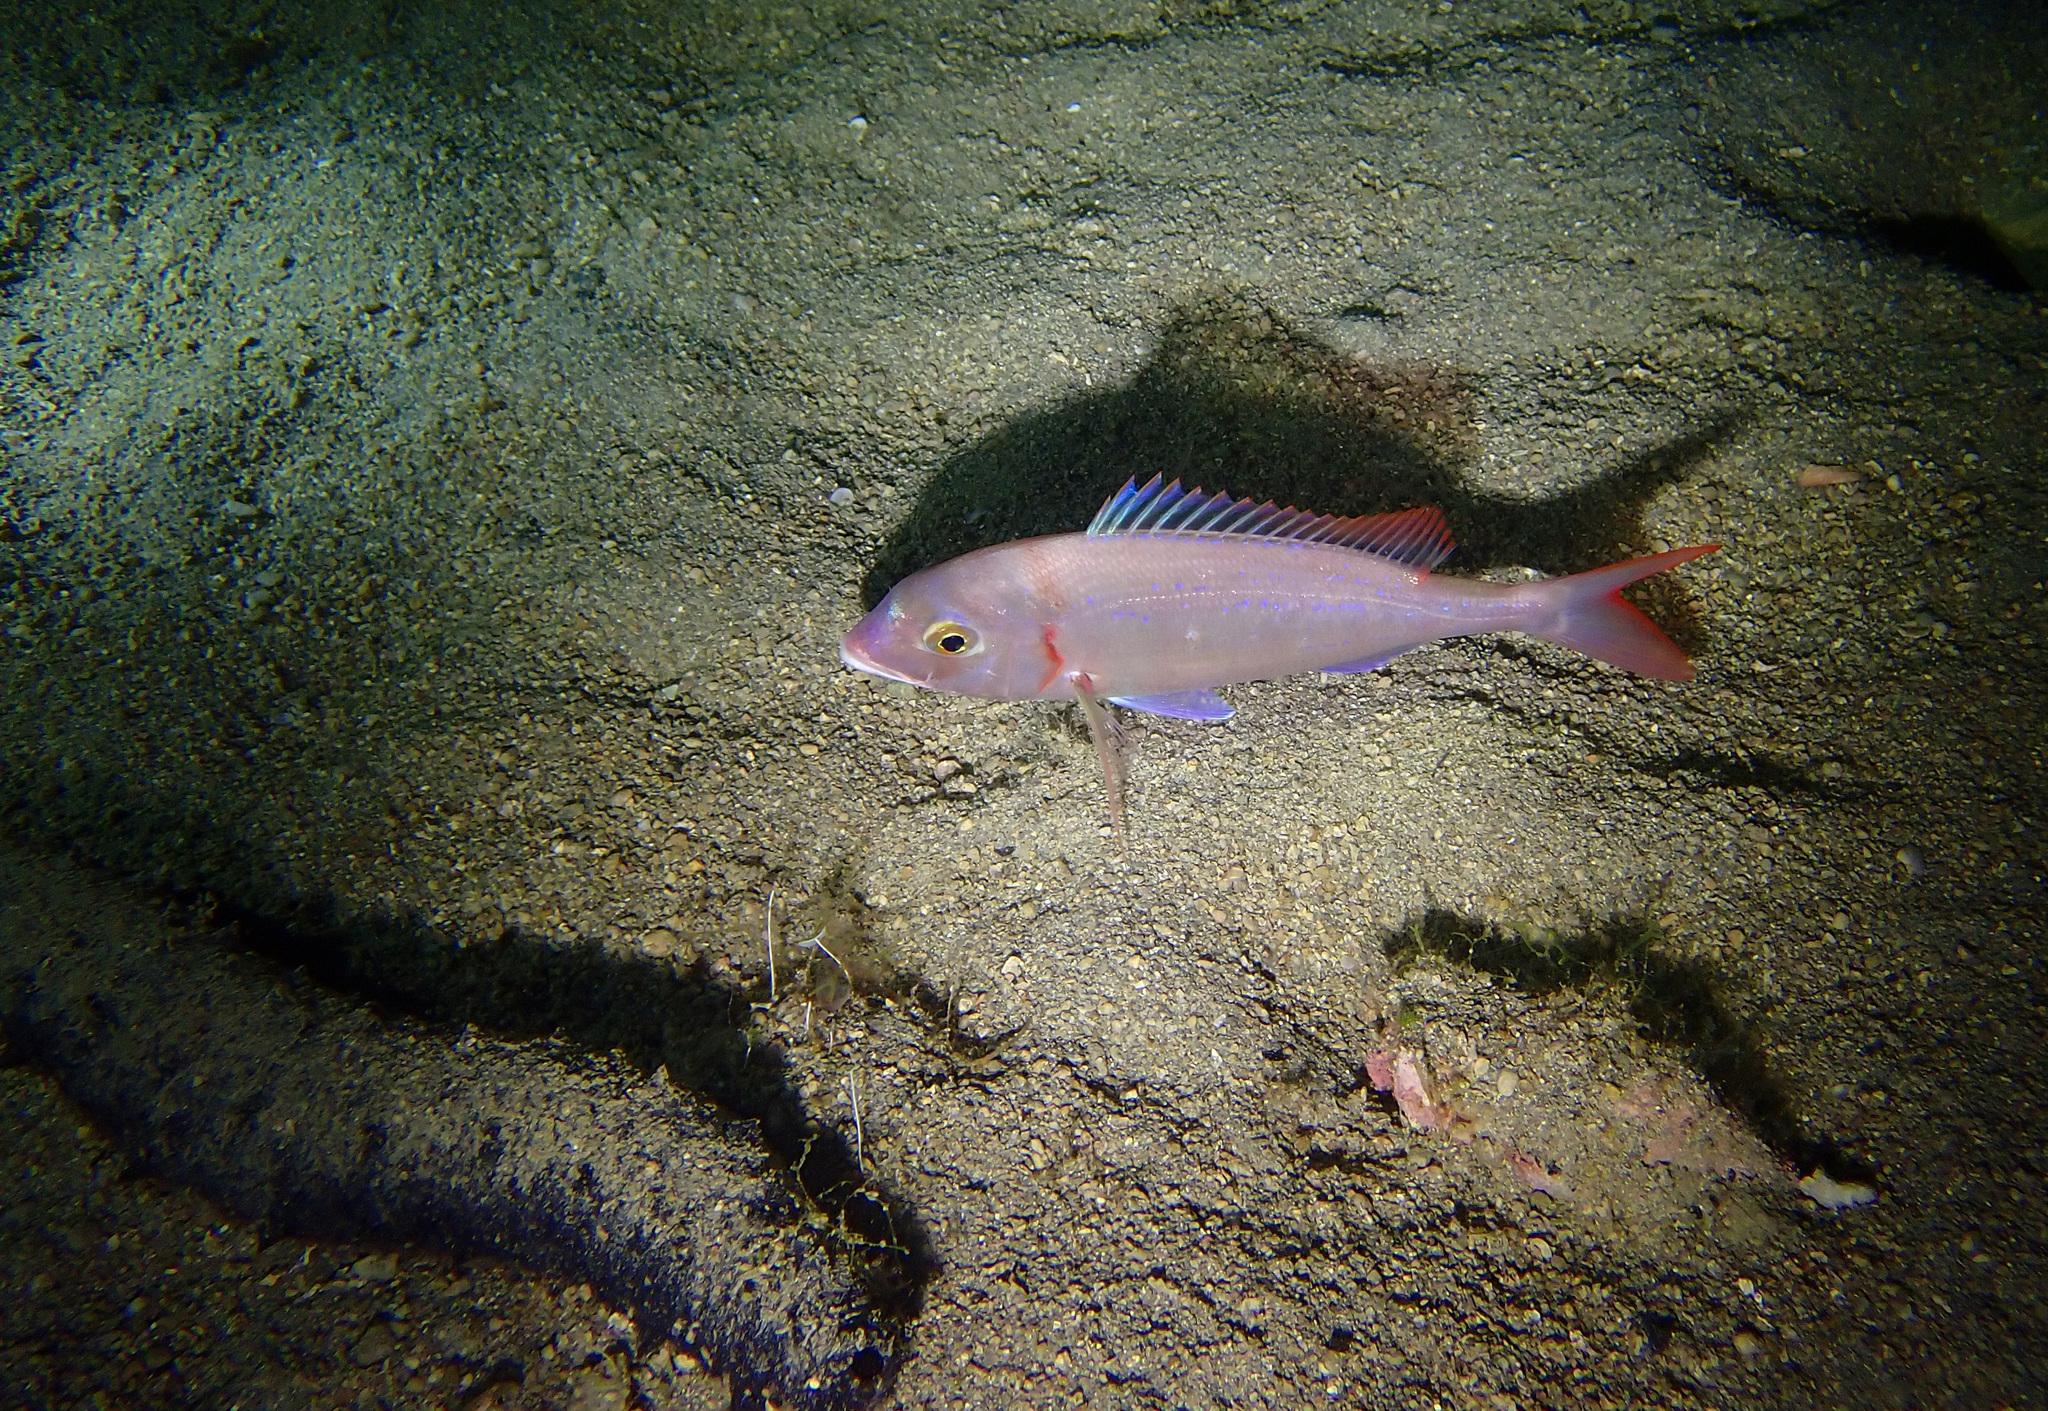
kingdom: Animalia
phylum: Chordata
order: Perciformes
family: Sparidae
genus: Pagellus
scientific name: Pagellus erythrinus
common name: Pandora
